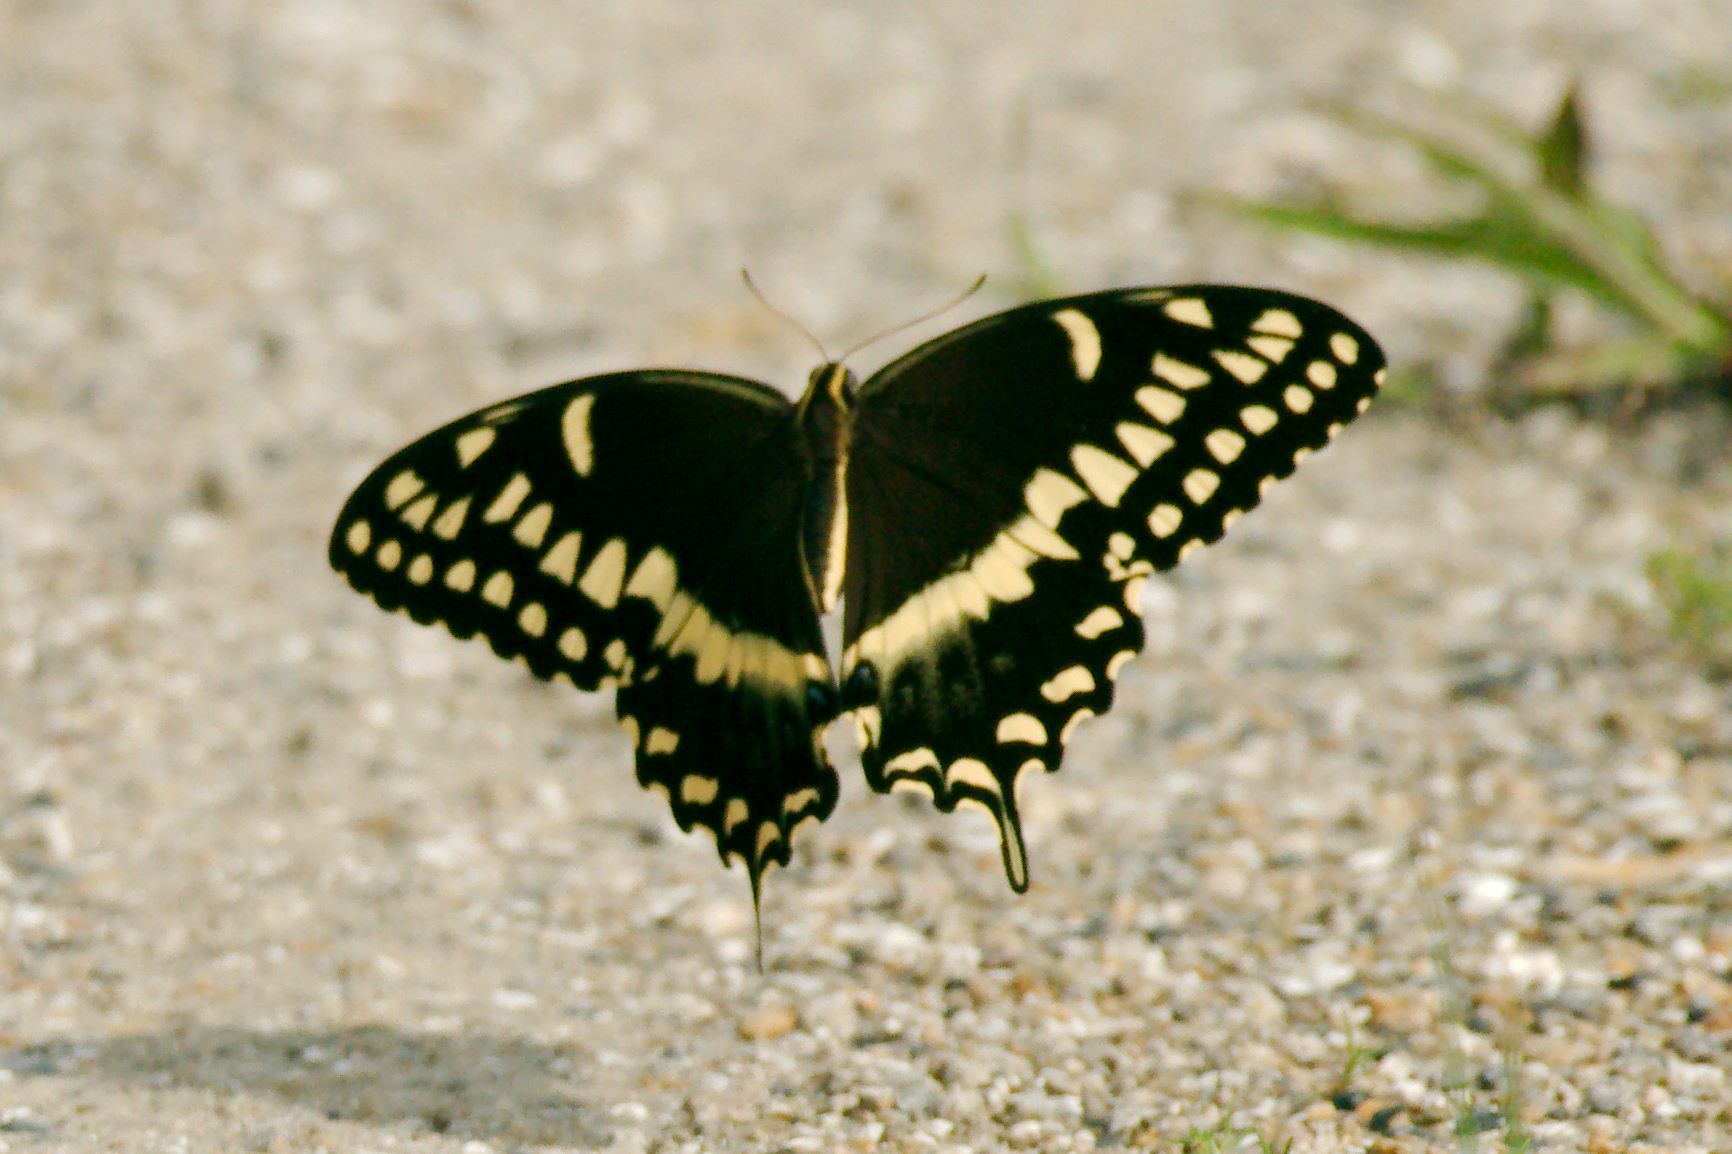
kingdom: Animalia
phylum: Arthropoda
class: Insecta
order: Lepidoptera
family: Papilionidae
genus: Papilio
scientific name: Papilio palamedes
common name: Palamedes swallowtail
